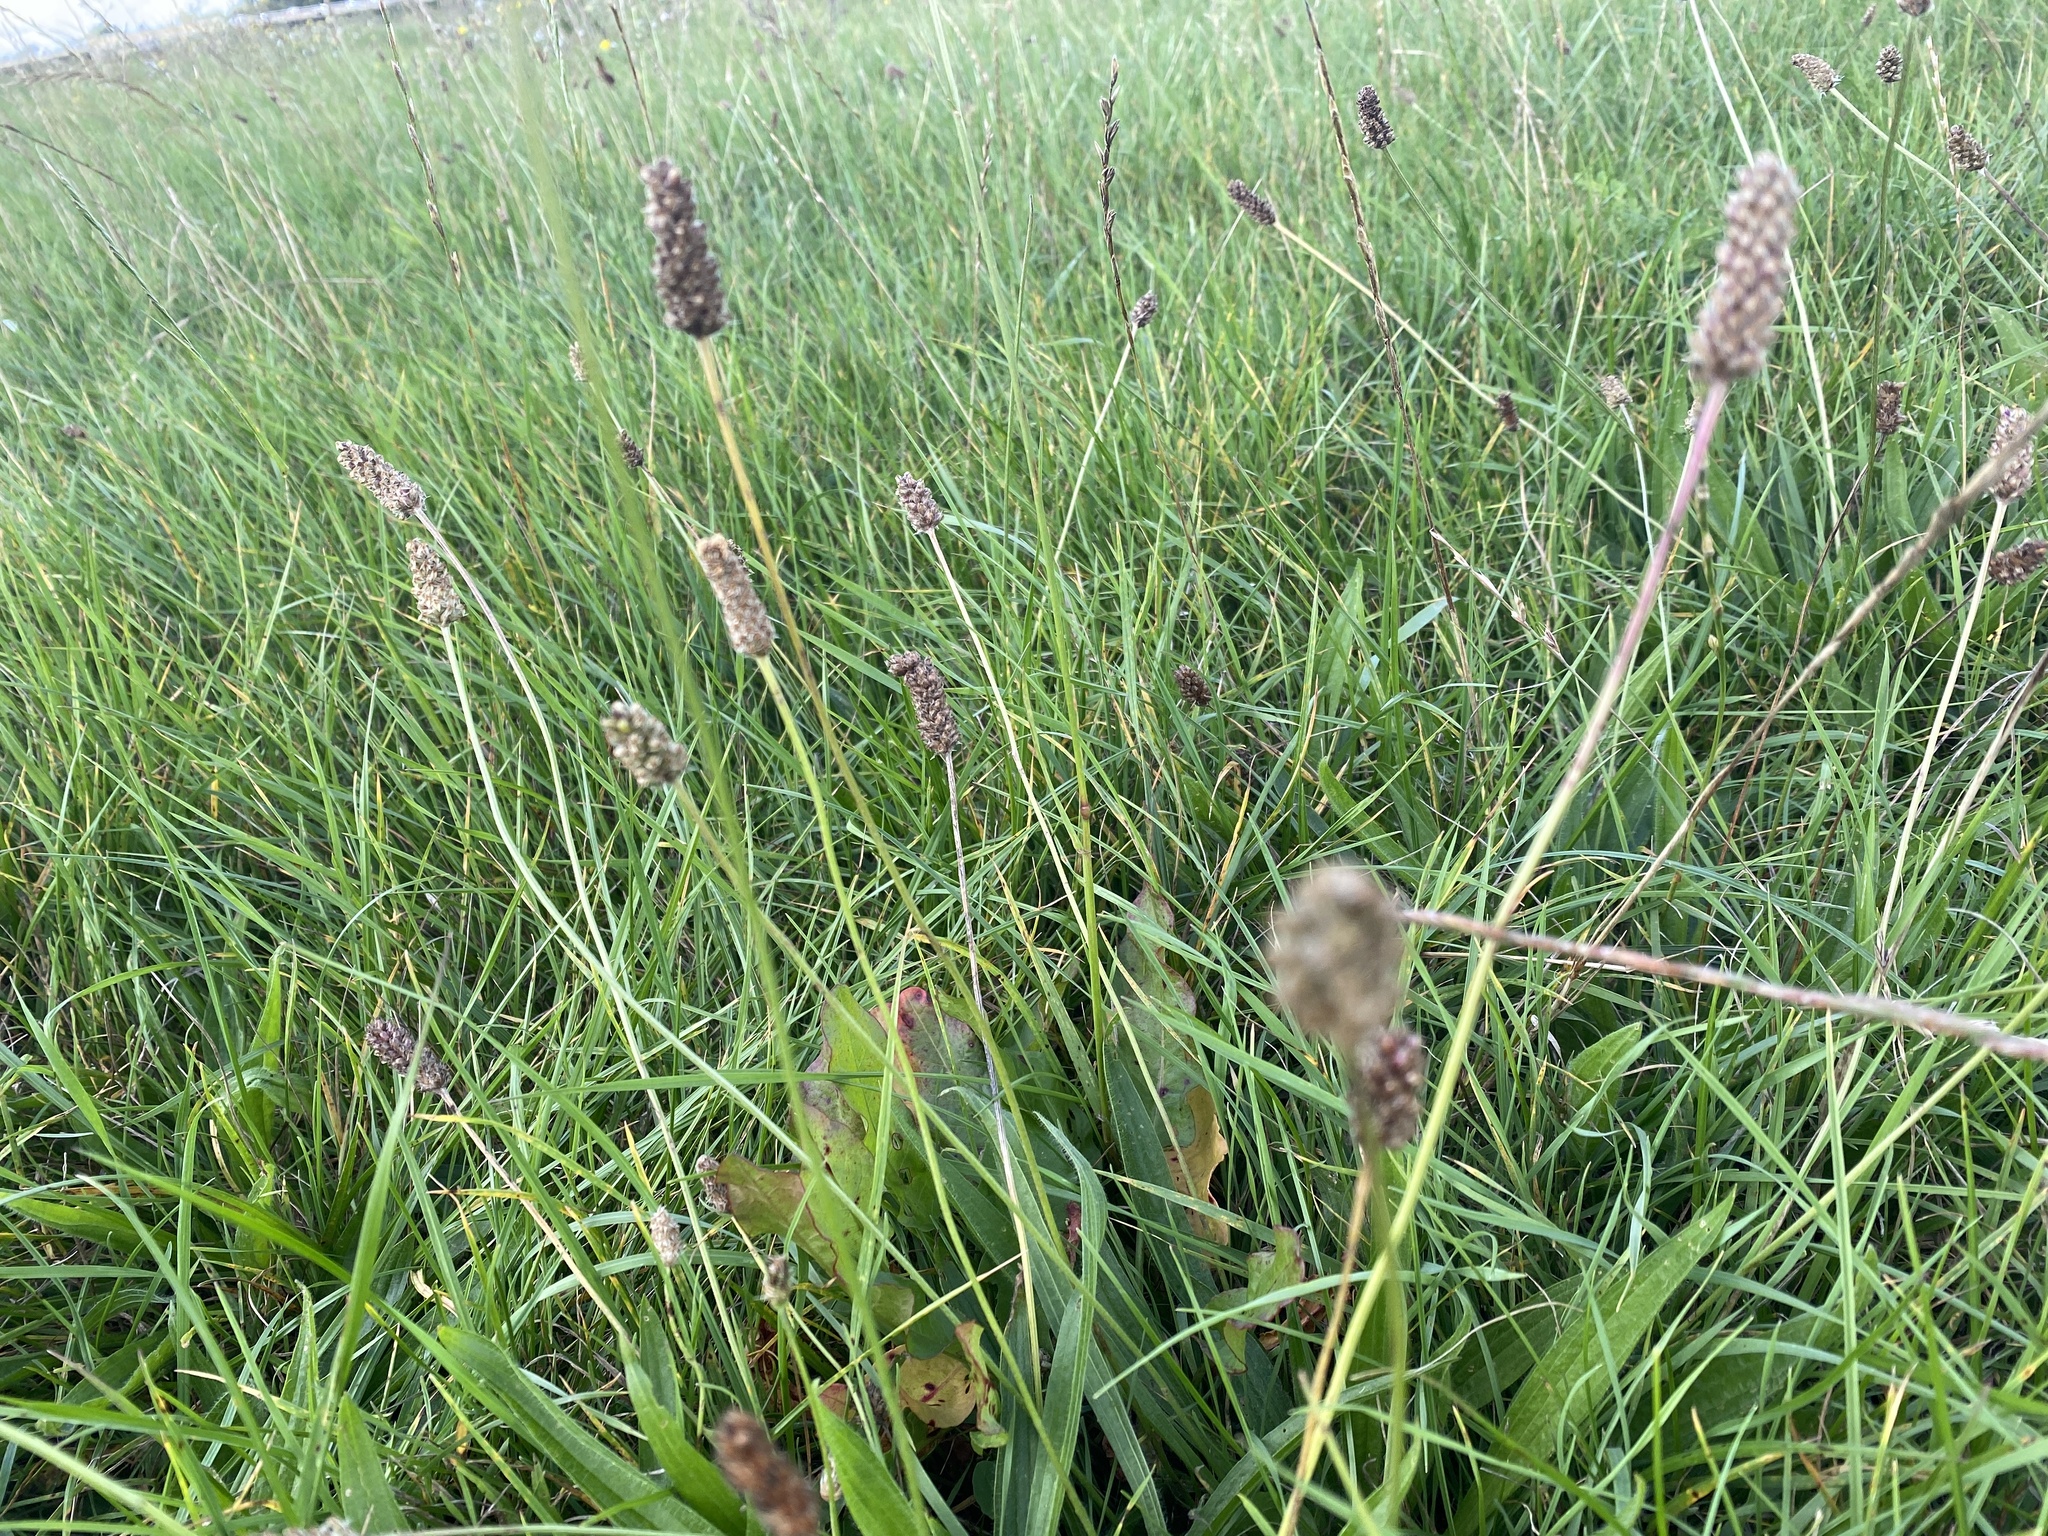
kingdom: Plantae
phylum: Tracheophyta
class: Magnoliopsida
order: Lamiales
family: Plantaginaceae
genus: Plantago
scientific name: Plantago lanceolata
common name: Ribwort plantain
